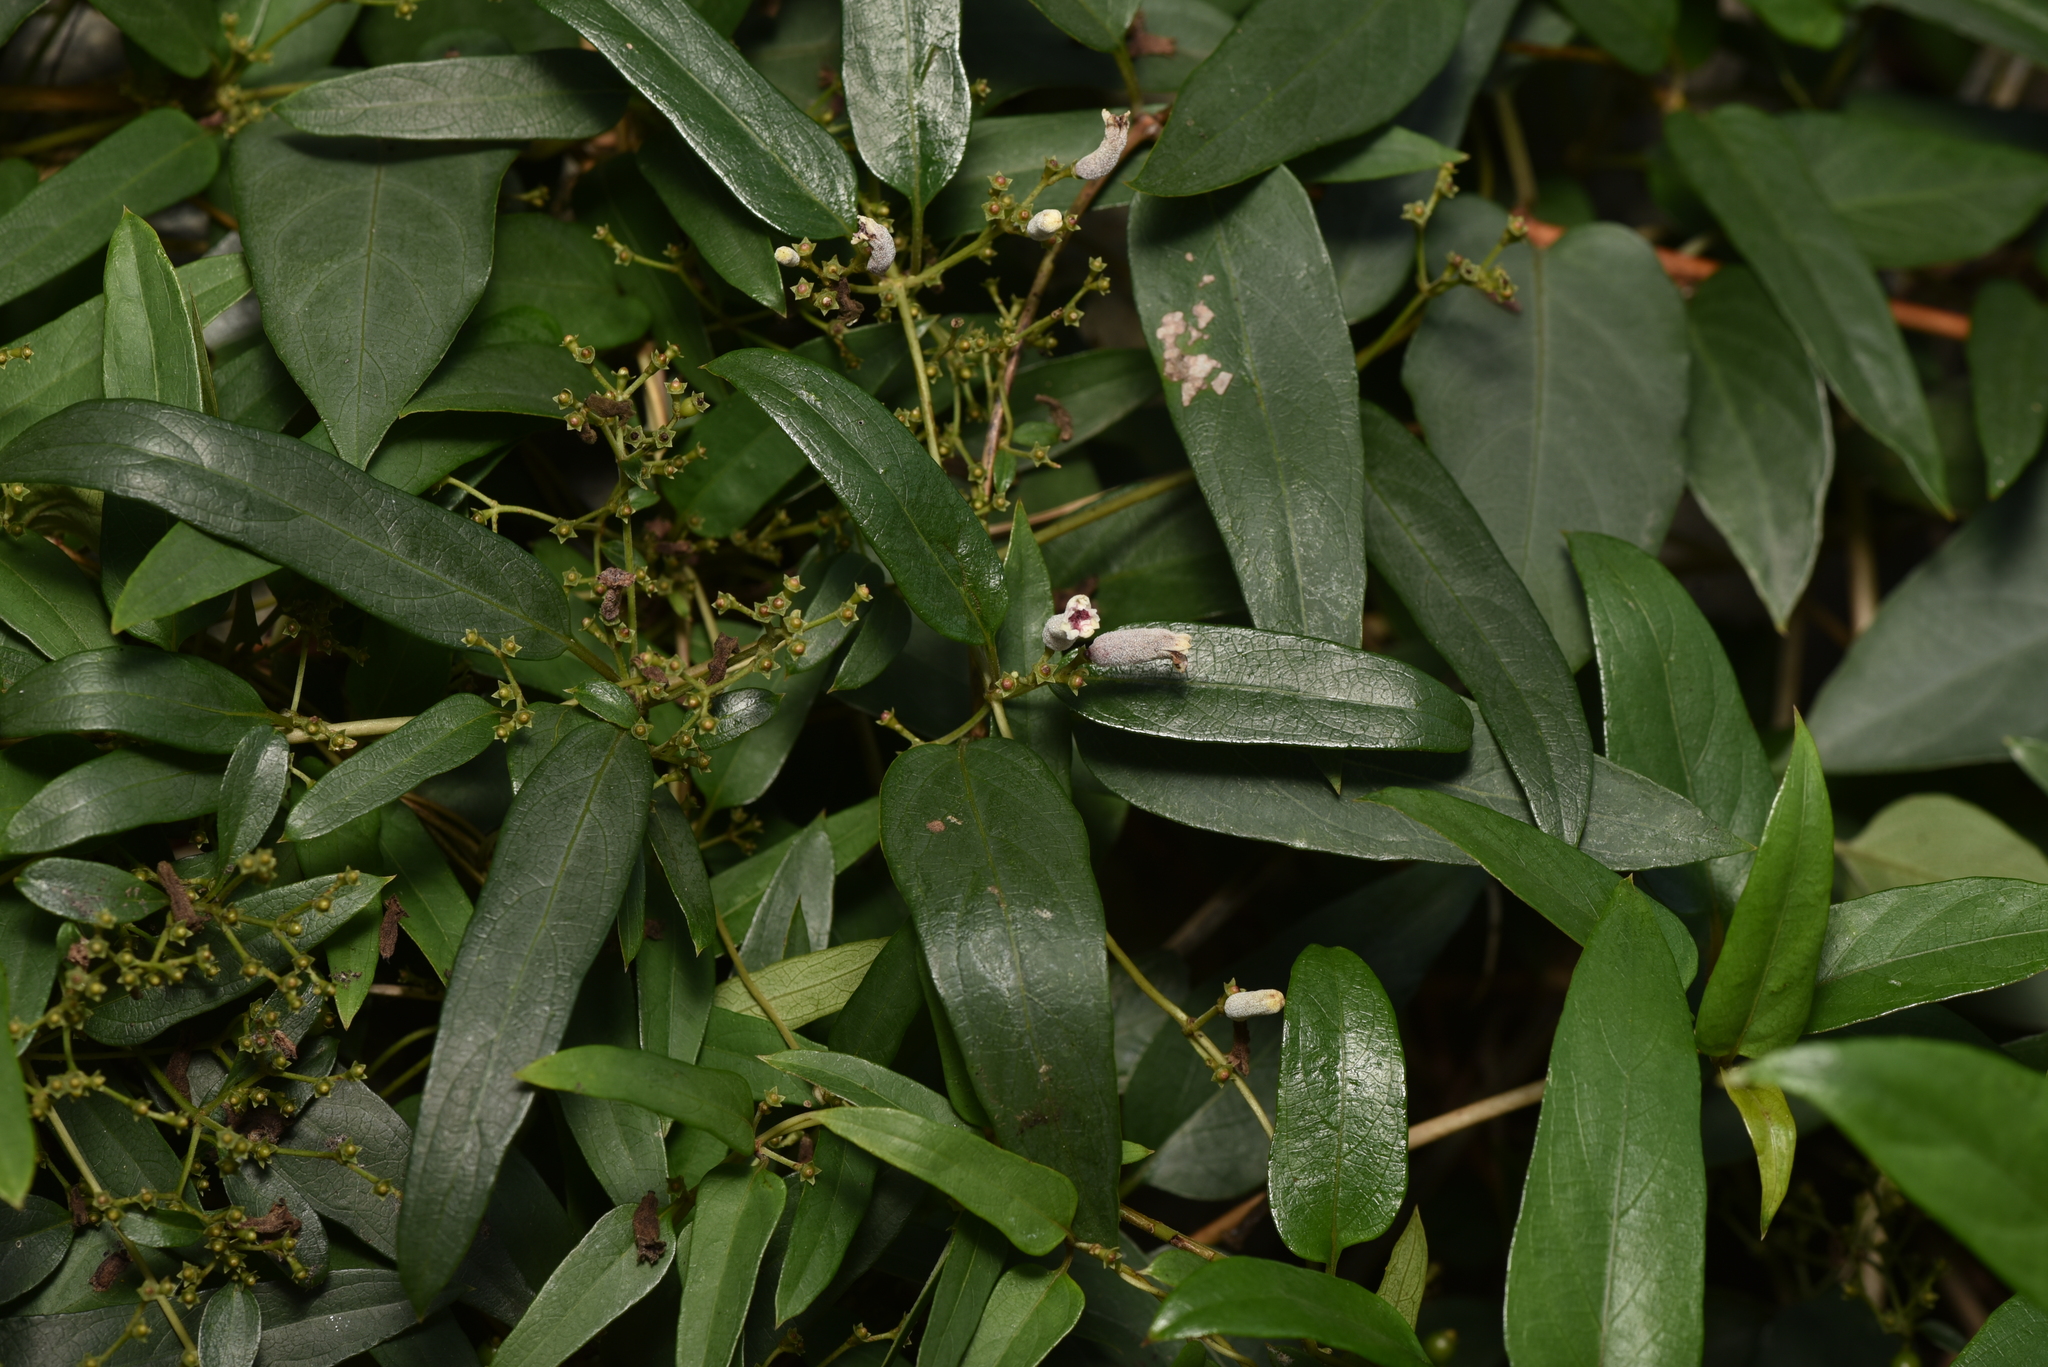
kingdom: Plantae
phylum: Tracheophyta
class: Magnoliopsida
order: Gentianales
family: Rubiaceae
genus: Paederia
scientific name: Paederia foetida
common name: Stinkvine
